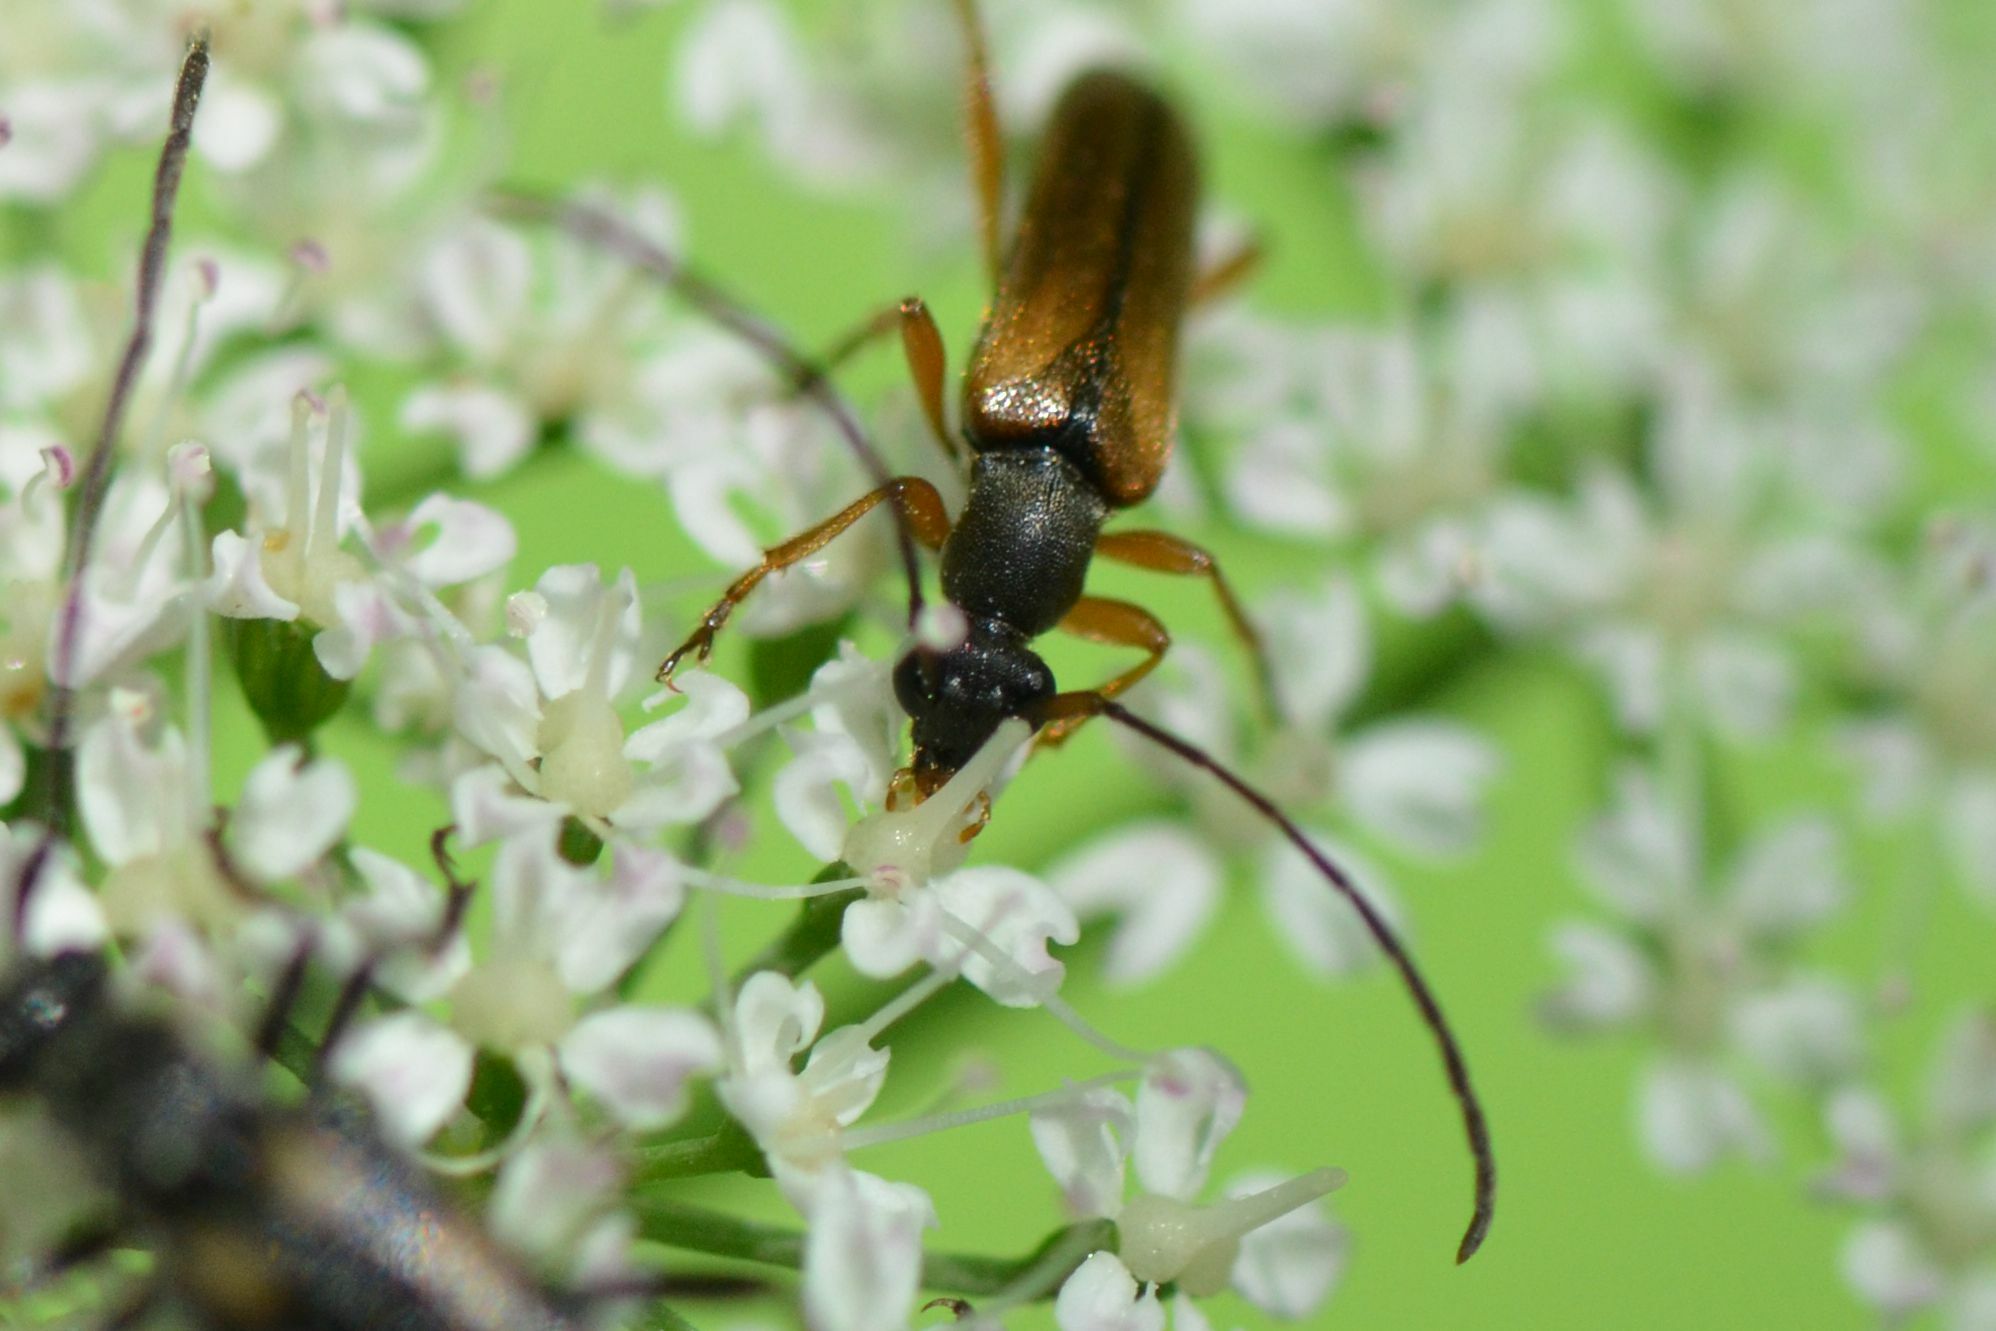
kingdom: Animalia
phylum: Arthropoda
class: Insecta
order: Coleoptera
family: Cerambycidae
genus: Alosterna
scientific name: Alosterna tabacicolor
